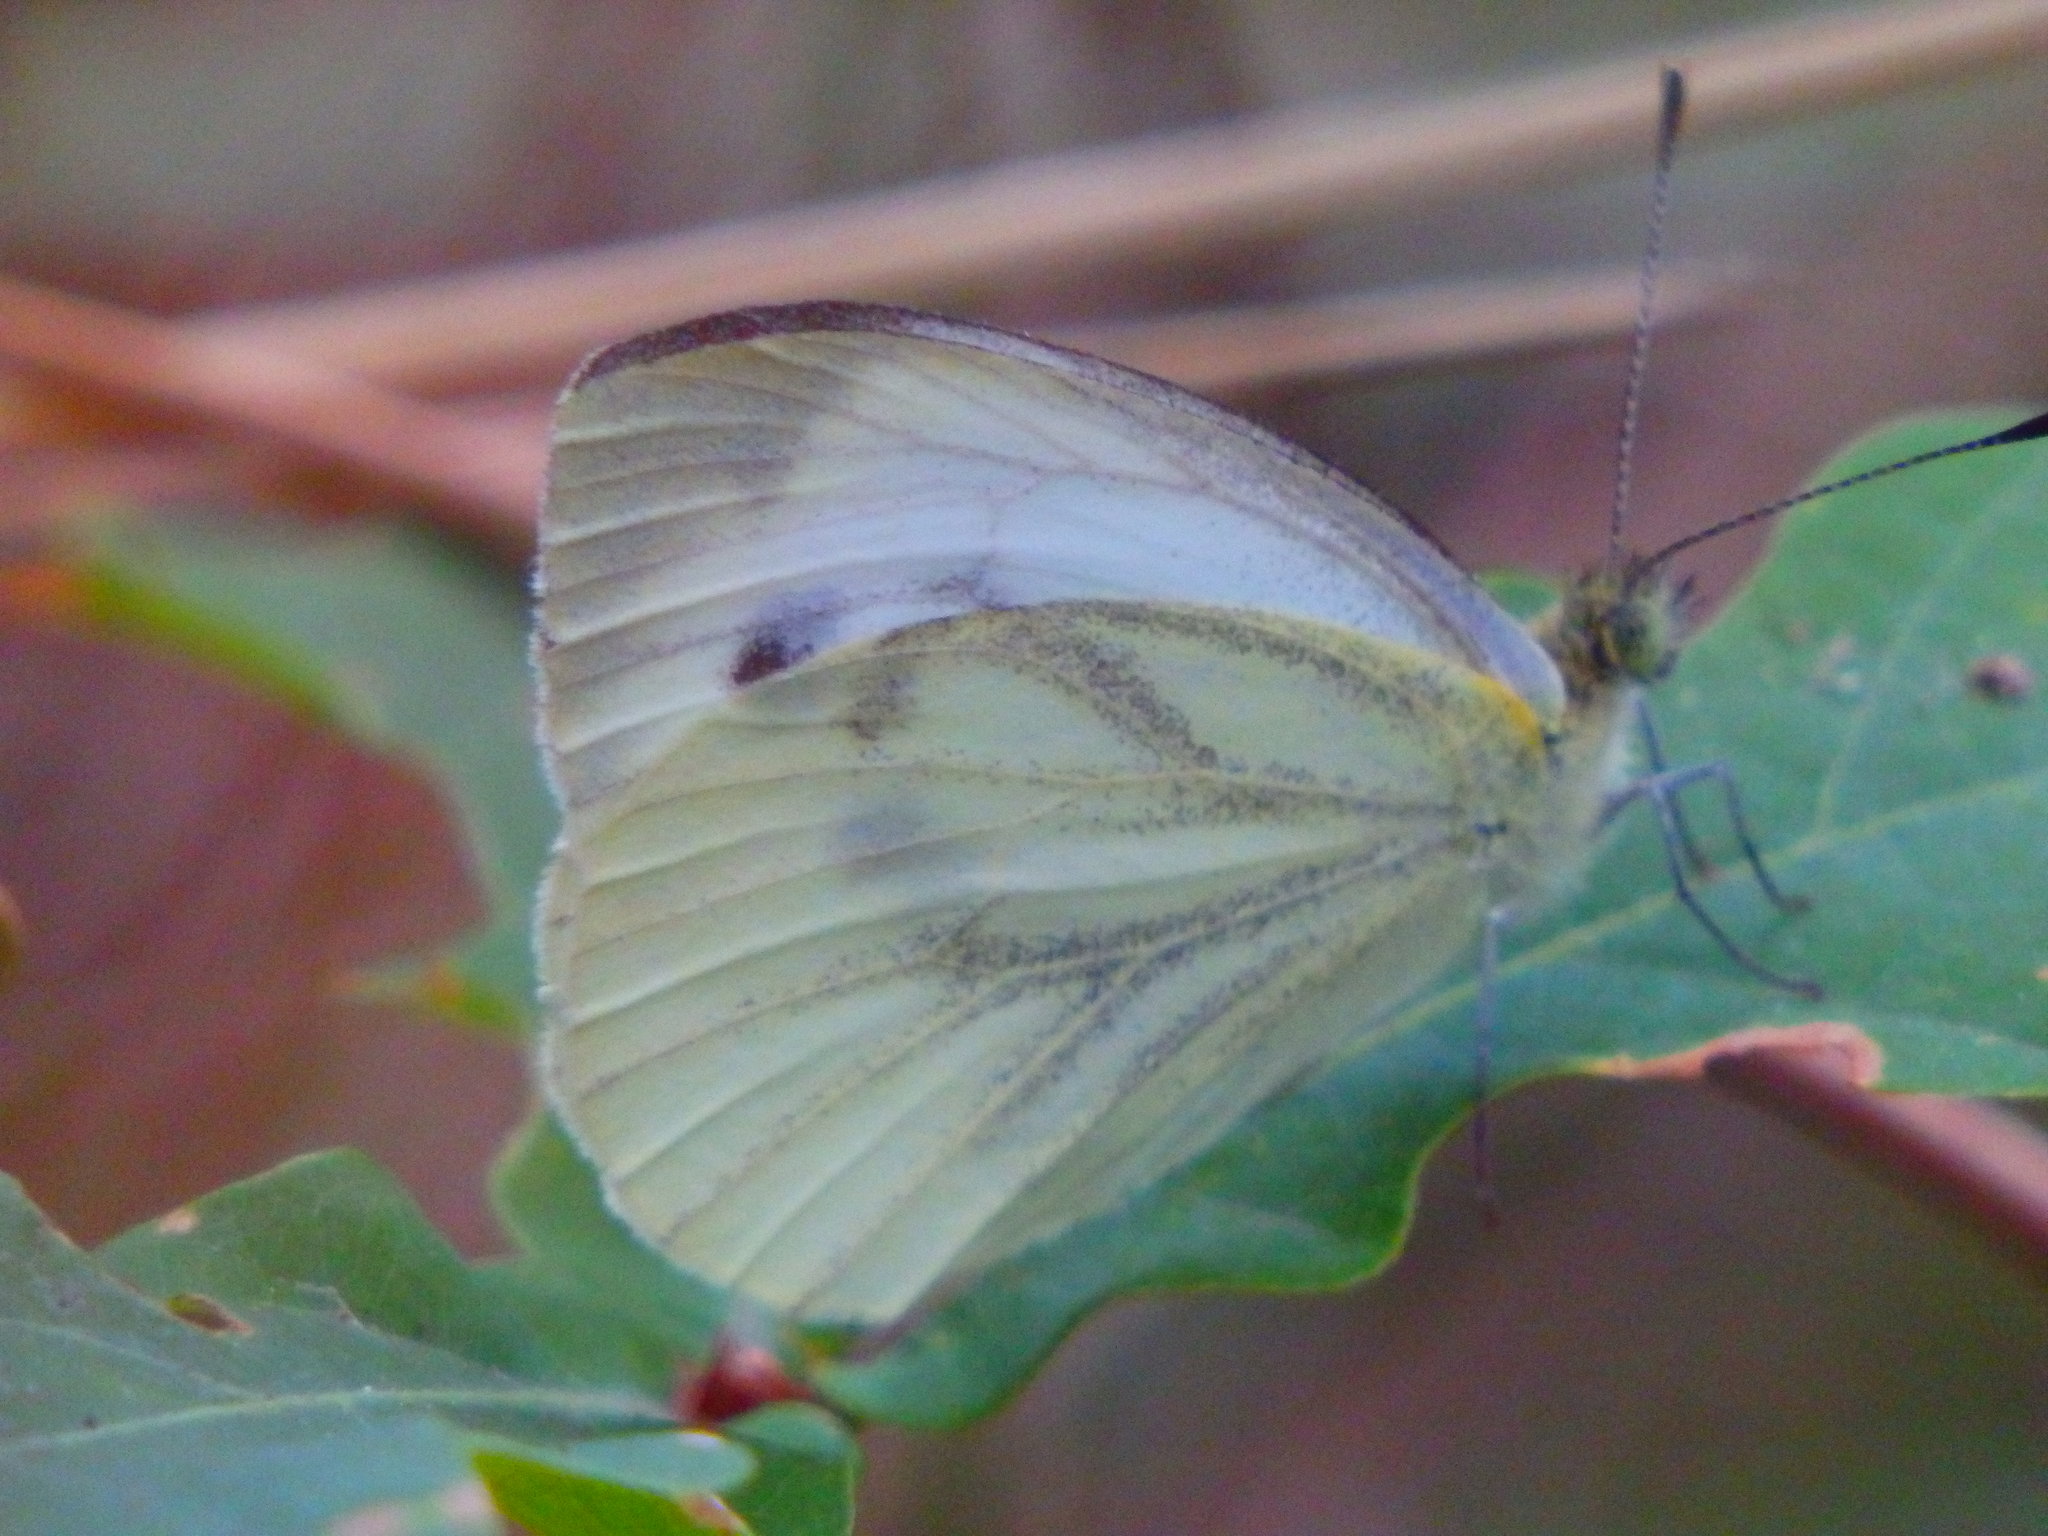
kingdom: Animalia
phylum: Arthropoda
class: Insecta
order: Lepidoptera
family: Pieridae
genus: Pieris
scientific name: Pieris napi
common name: Green-veined white
